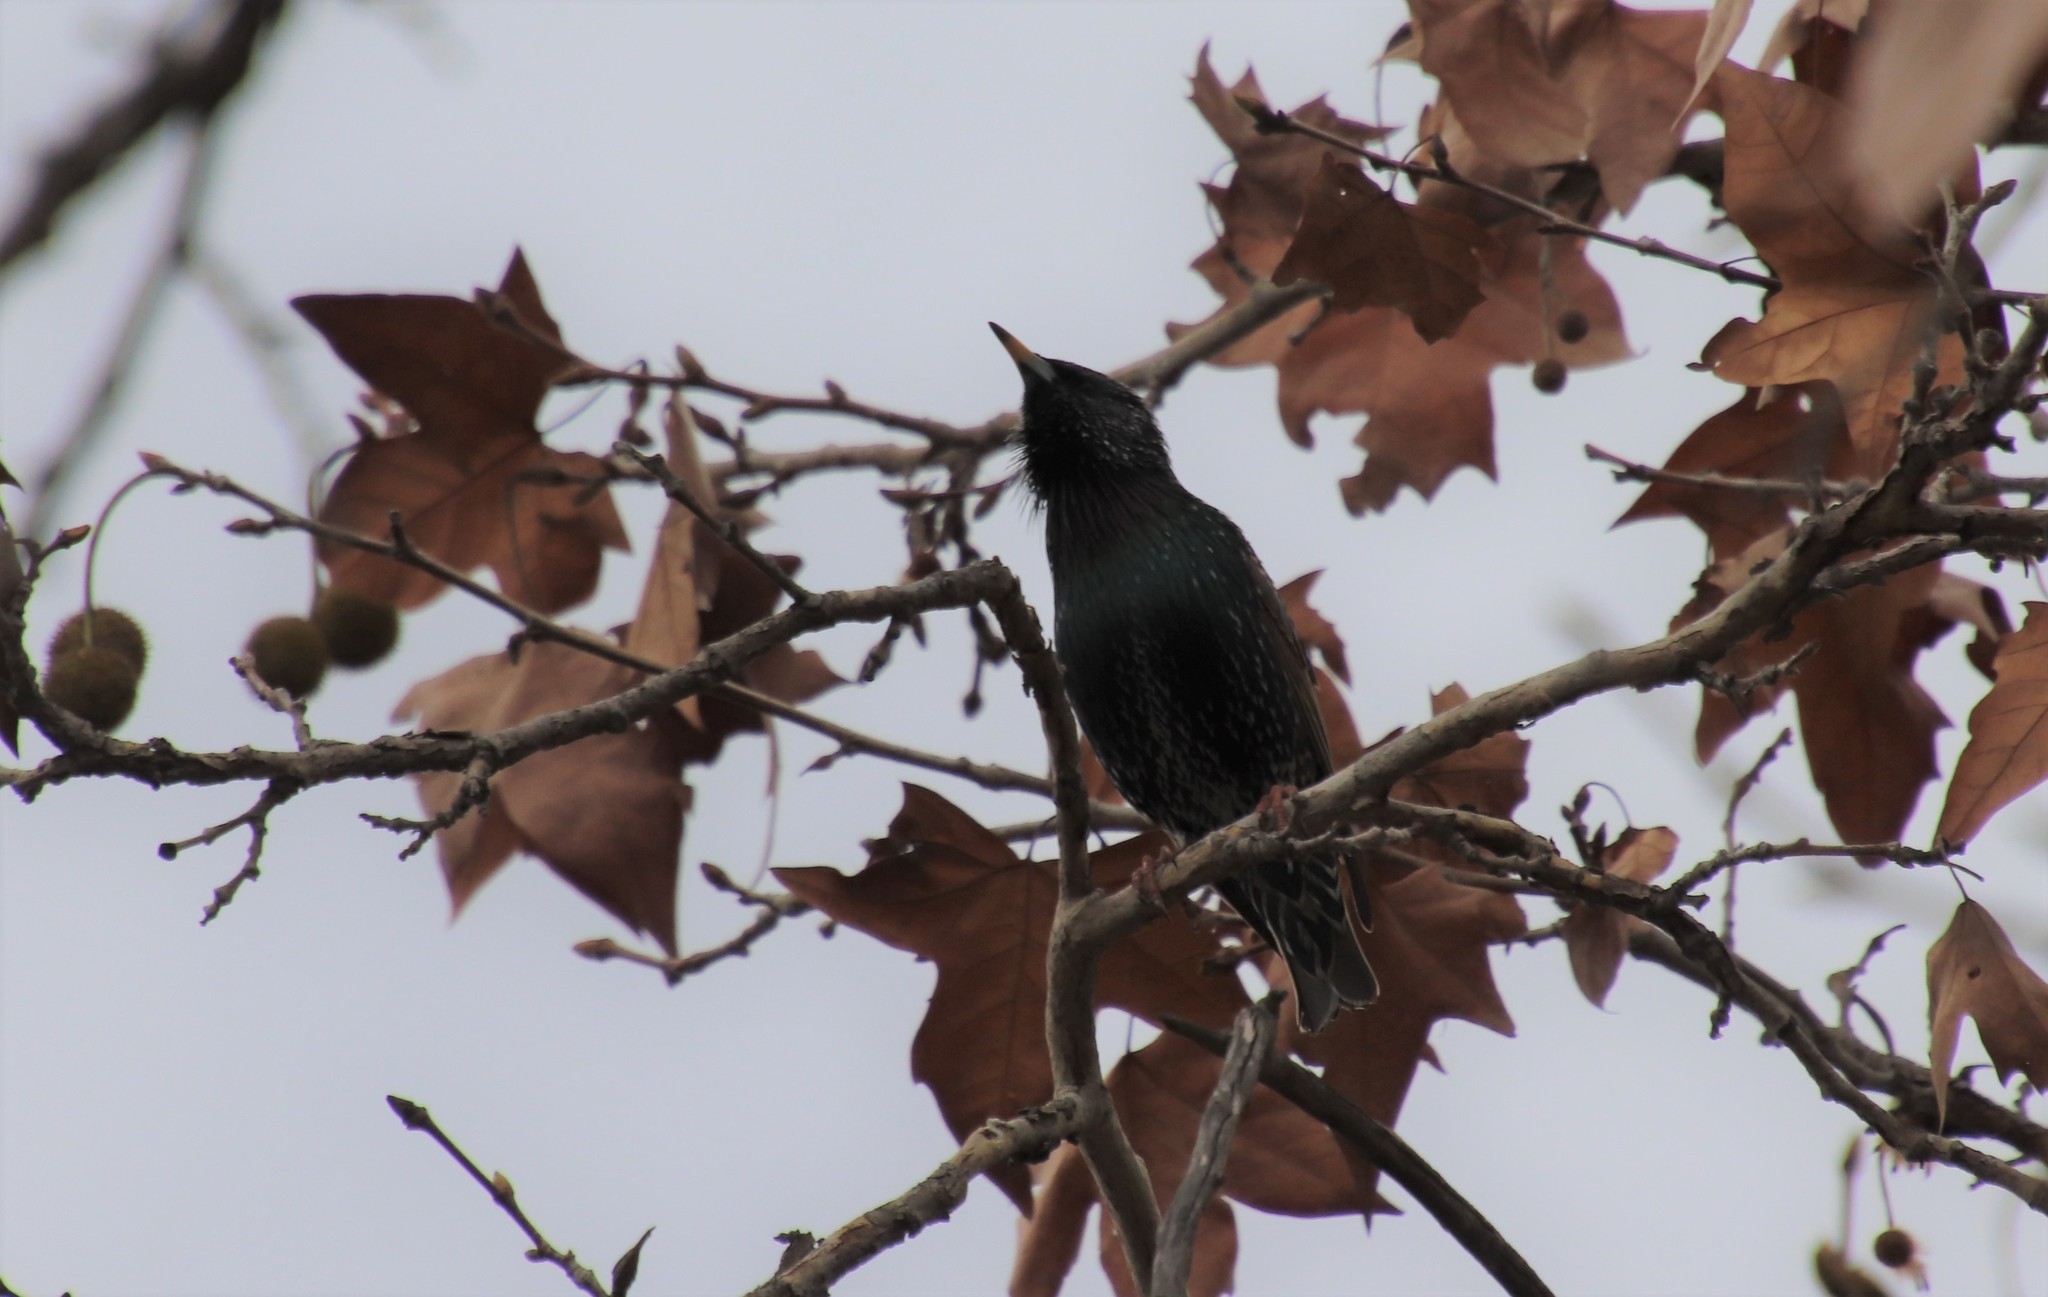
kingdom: Animalia
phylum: Chordata
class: Aves
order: Passeriformes
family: Sturnidae
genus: Sturnus
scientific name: Sturnus vulgaris
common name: Common starling
